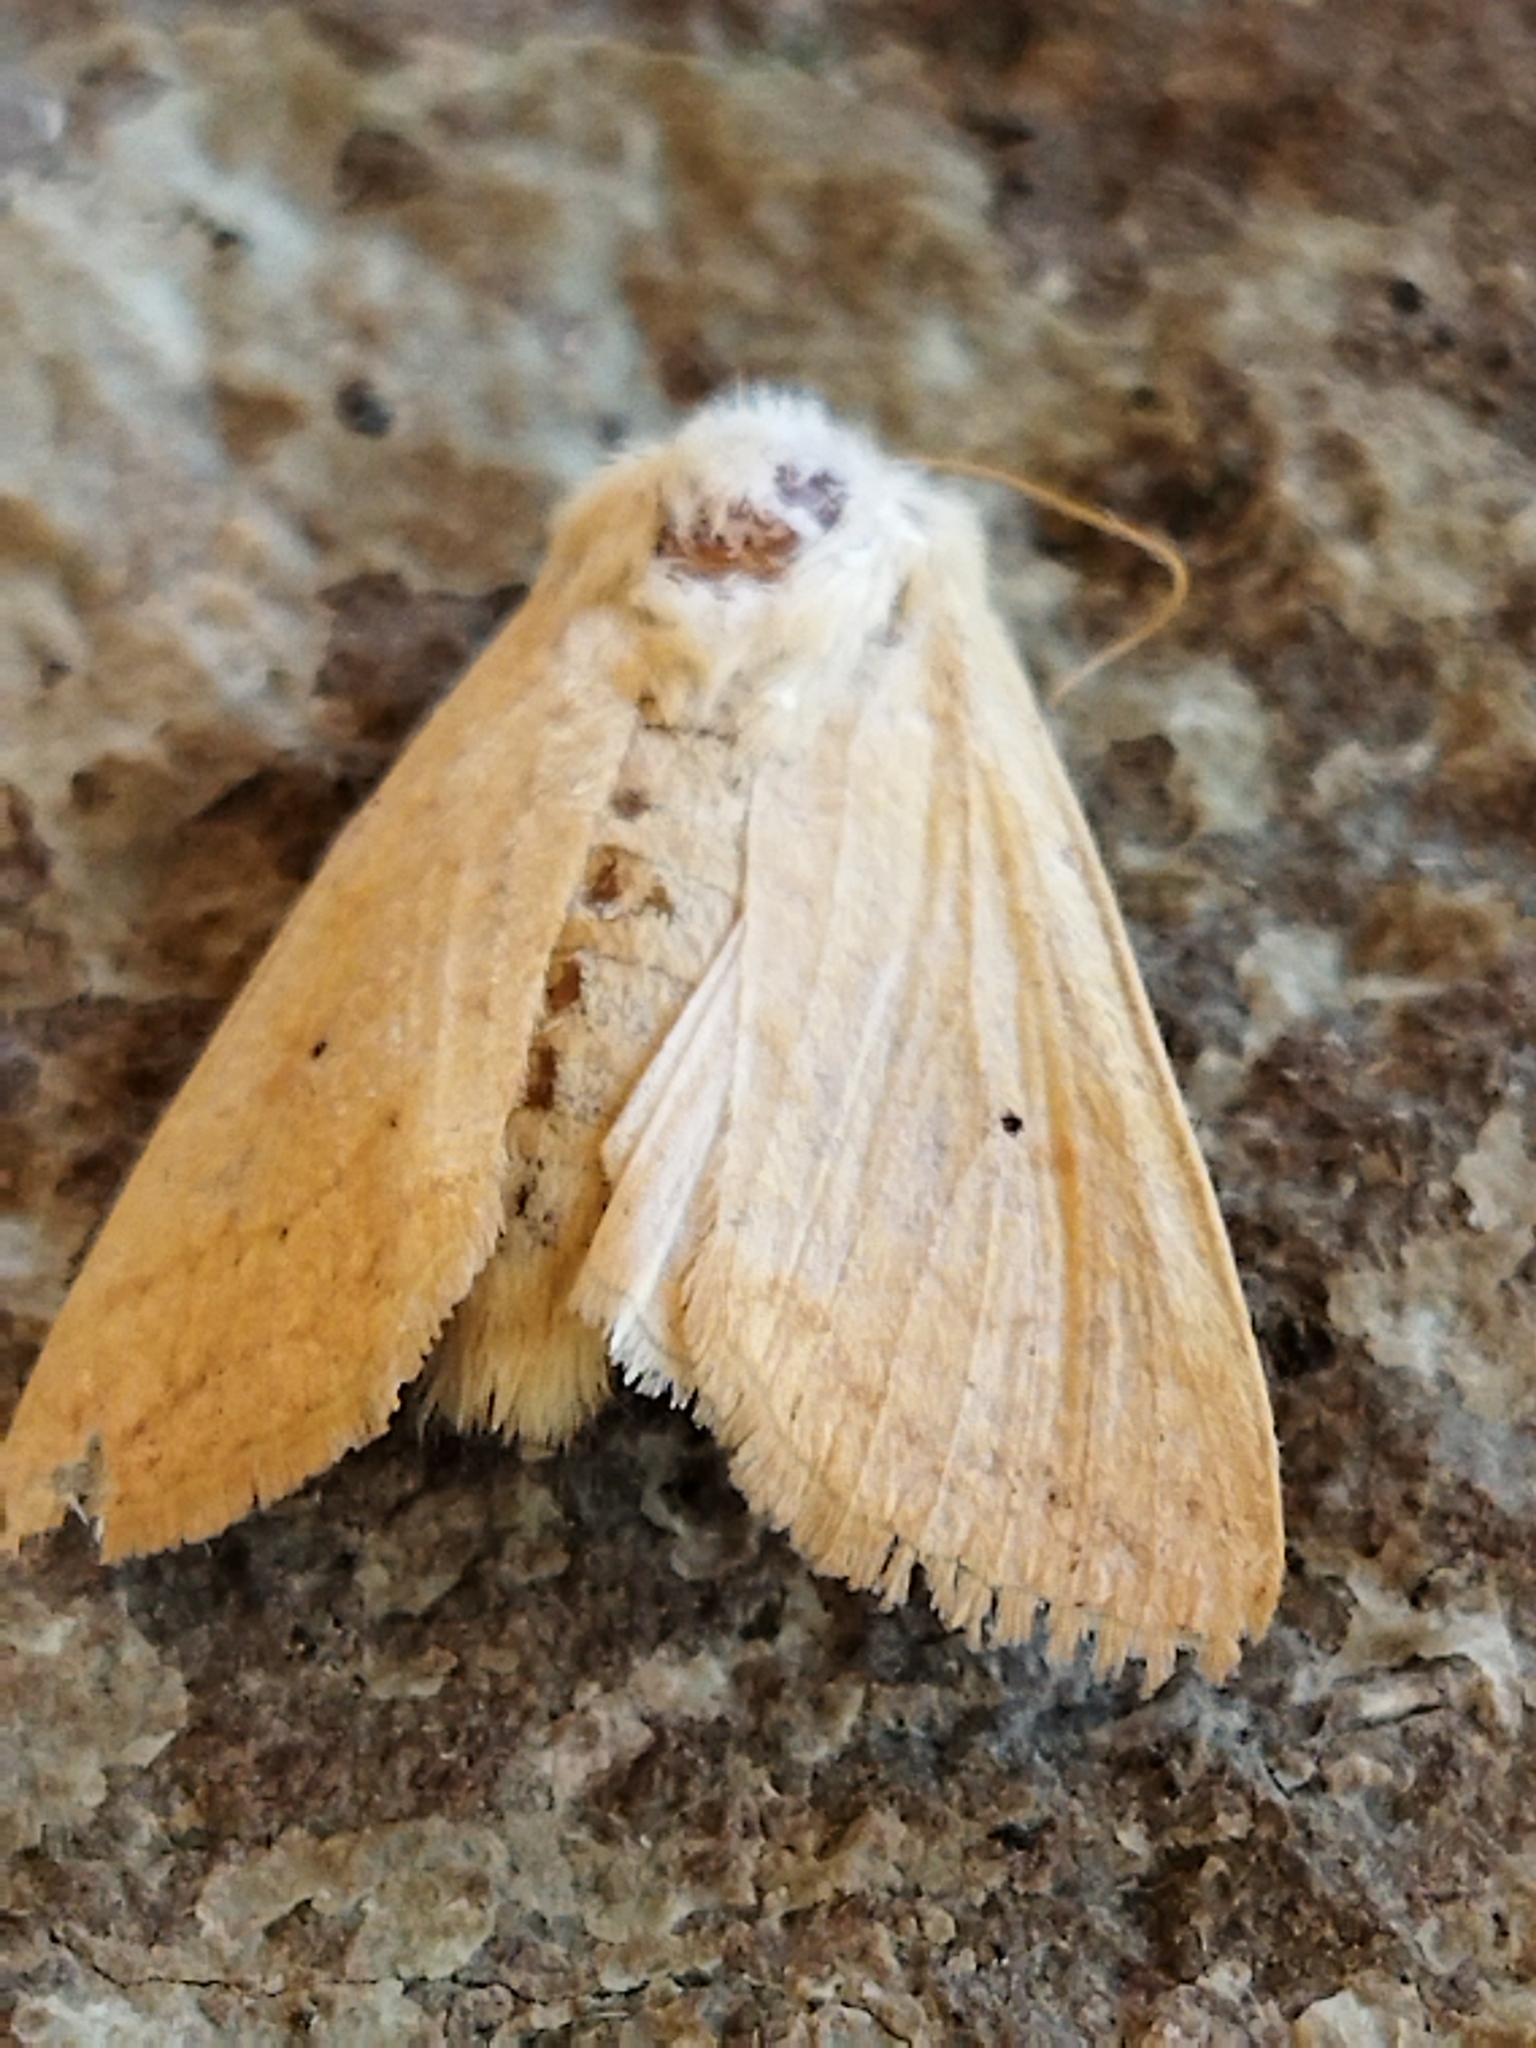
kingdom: Animalia
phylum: Arthropoda
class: Insecta
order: Lepidoptera
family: Noctuidae
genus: Mythimna
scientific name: Mythimna vitellina
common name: Delicate
